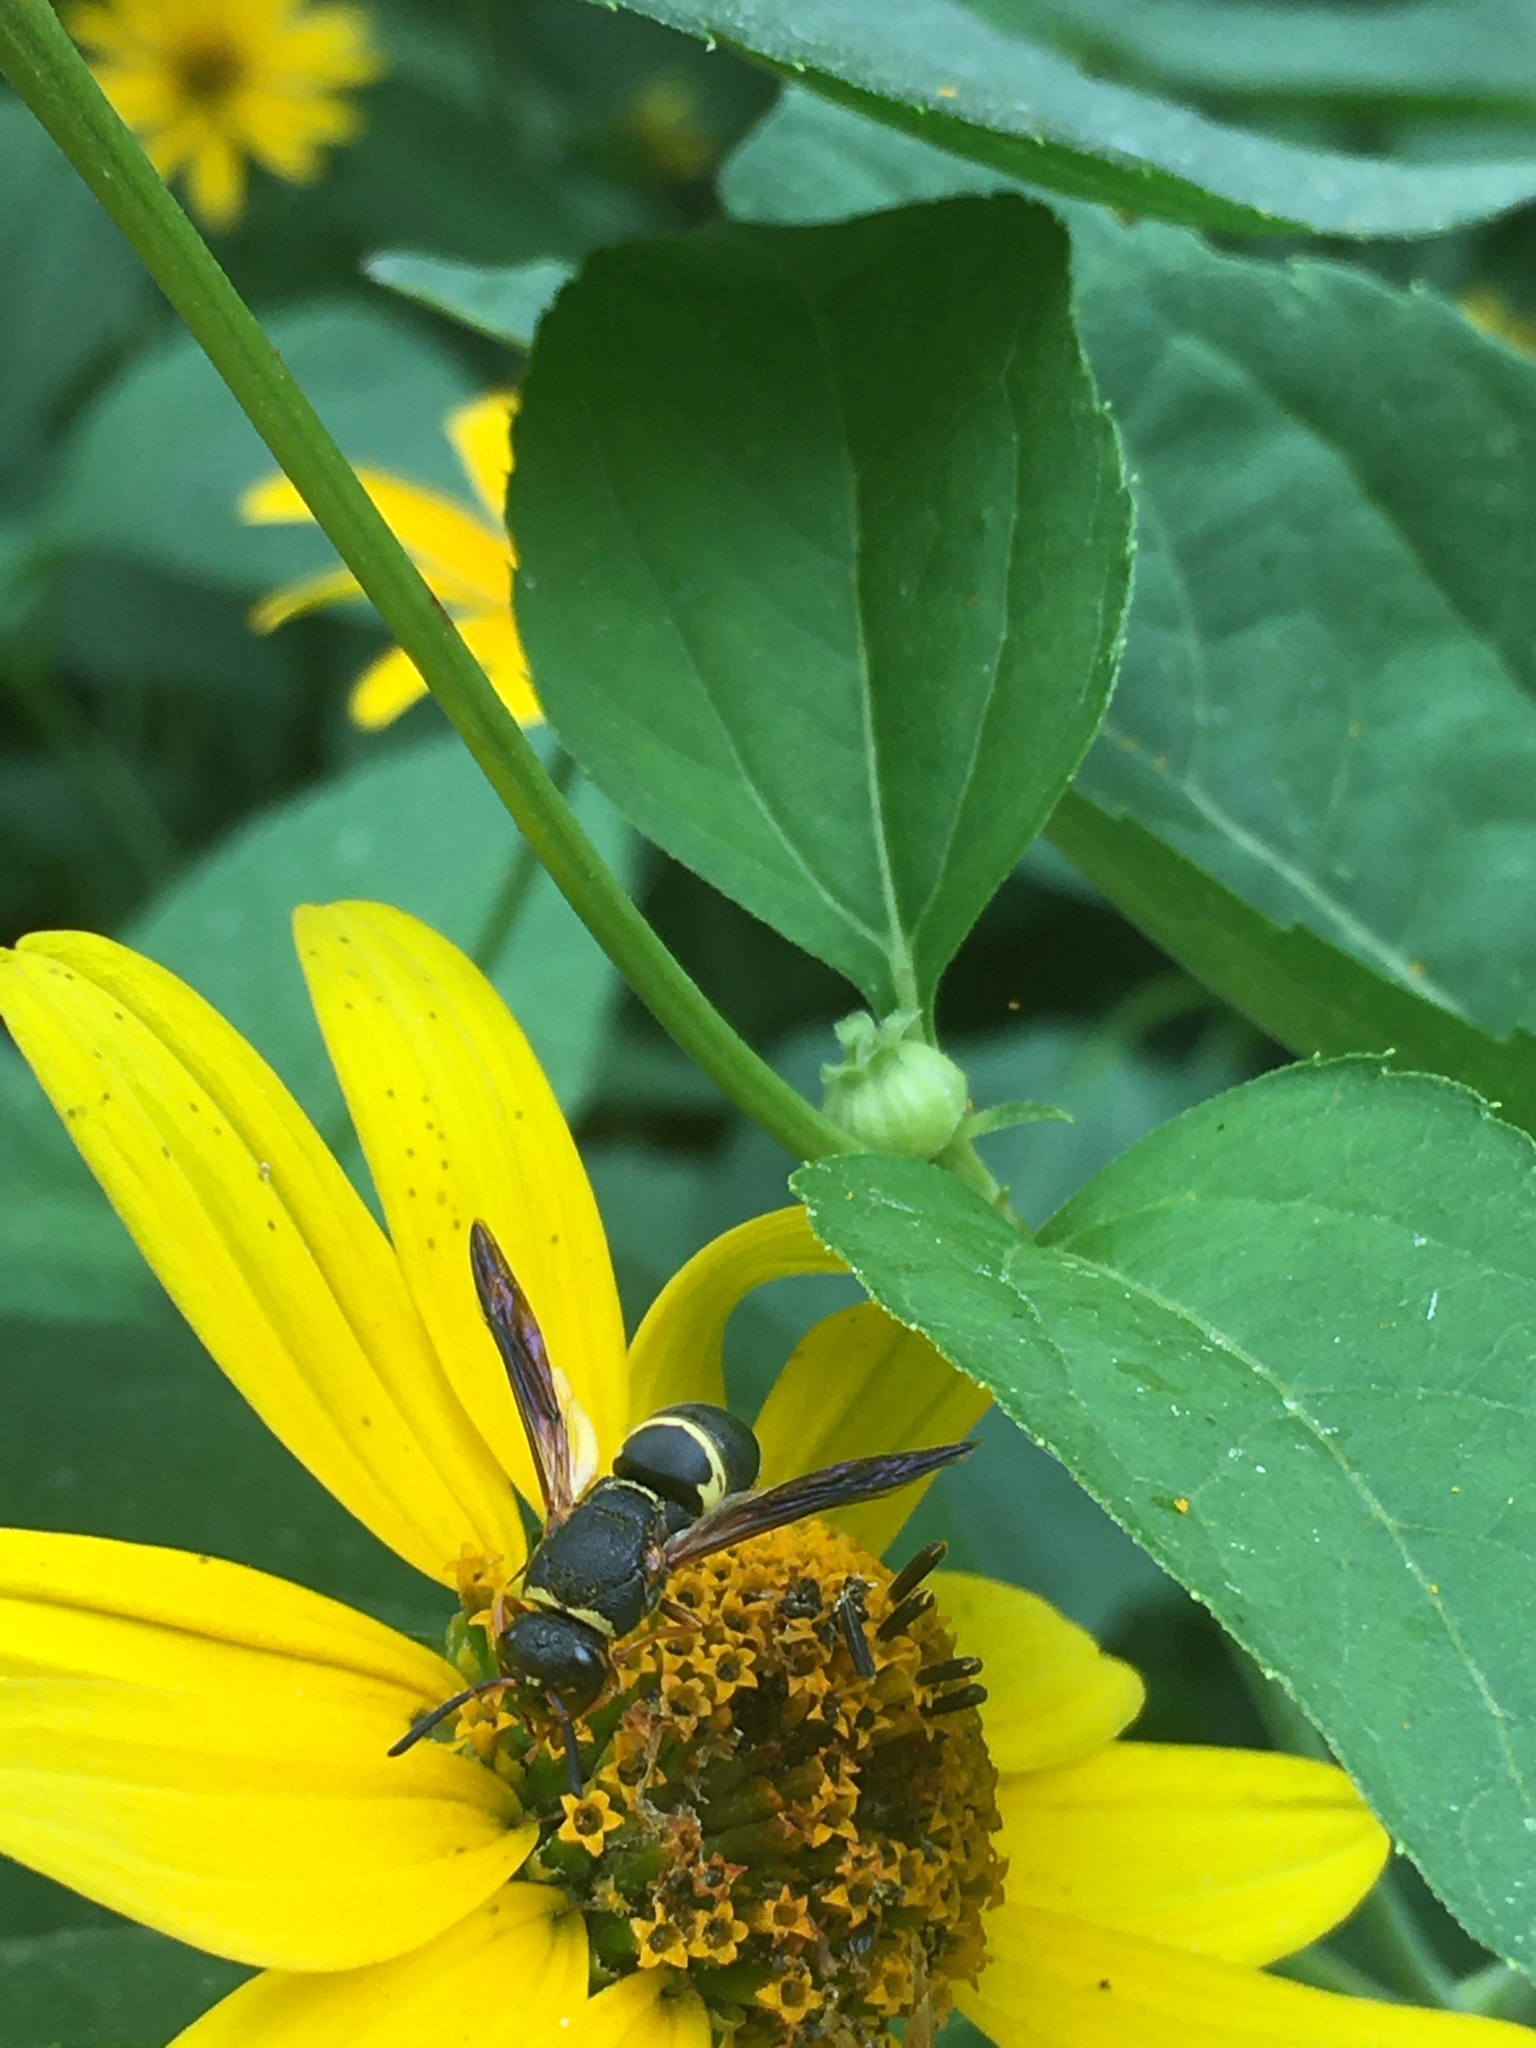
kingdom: Animalia
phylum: Arthropoda
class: Insecta
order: Hymenoptera
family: Eumenidae
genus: Euodynerus
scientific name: Euodynerus hidalgo
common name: Wasp
